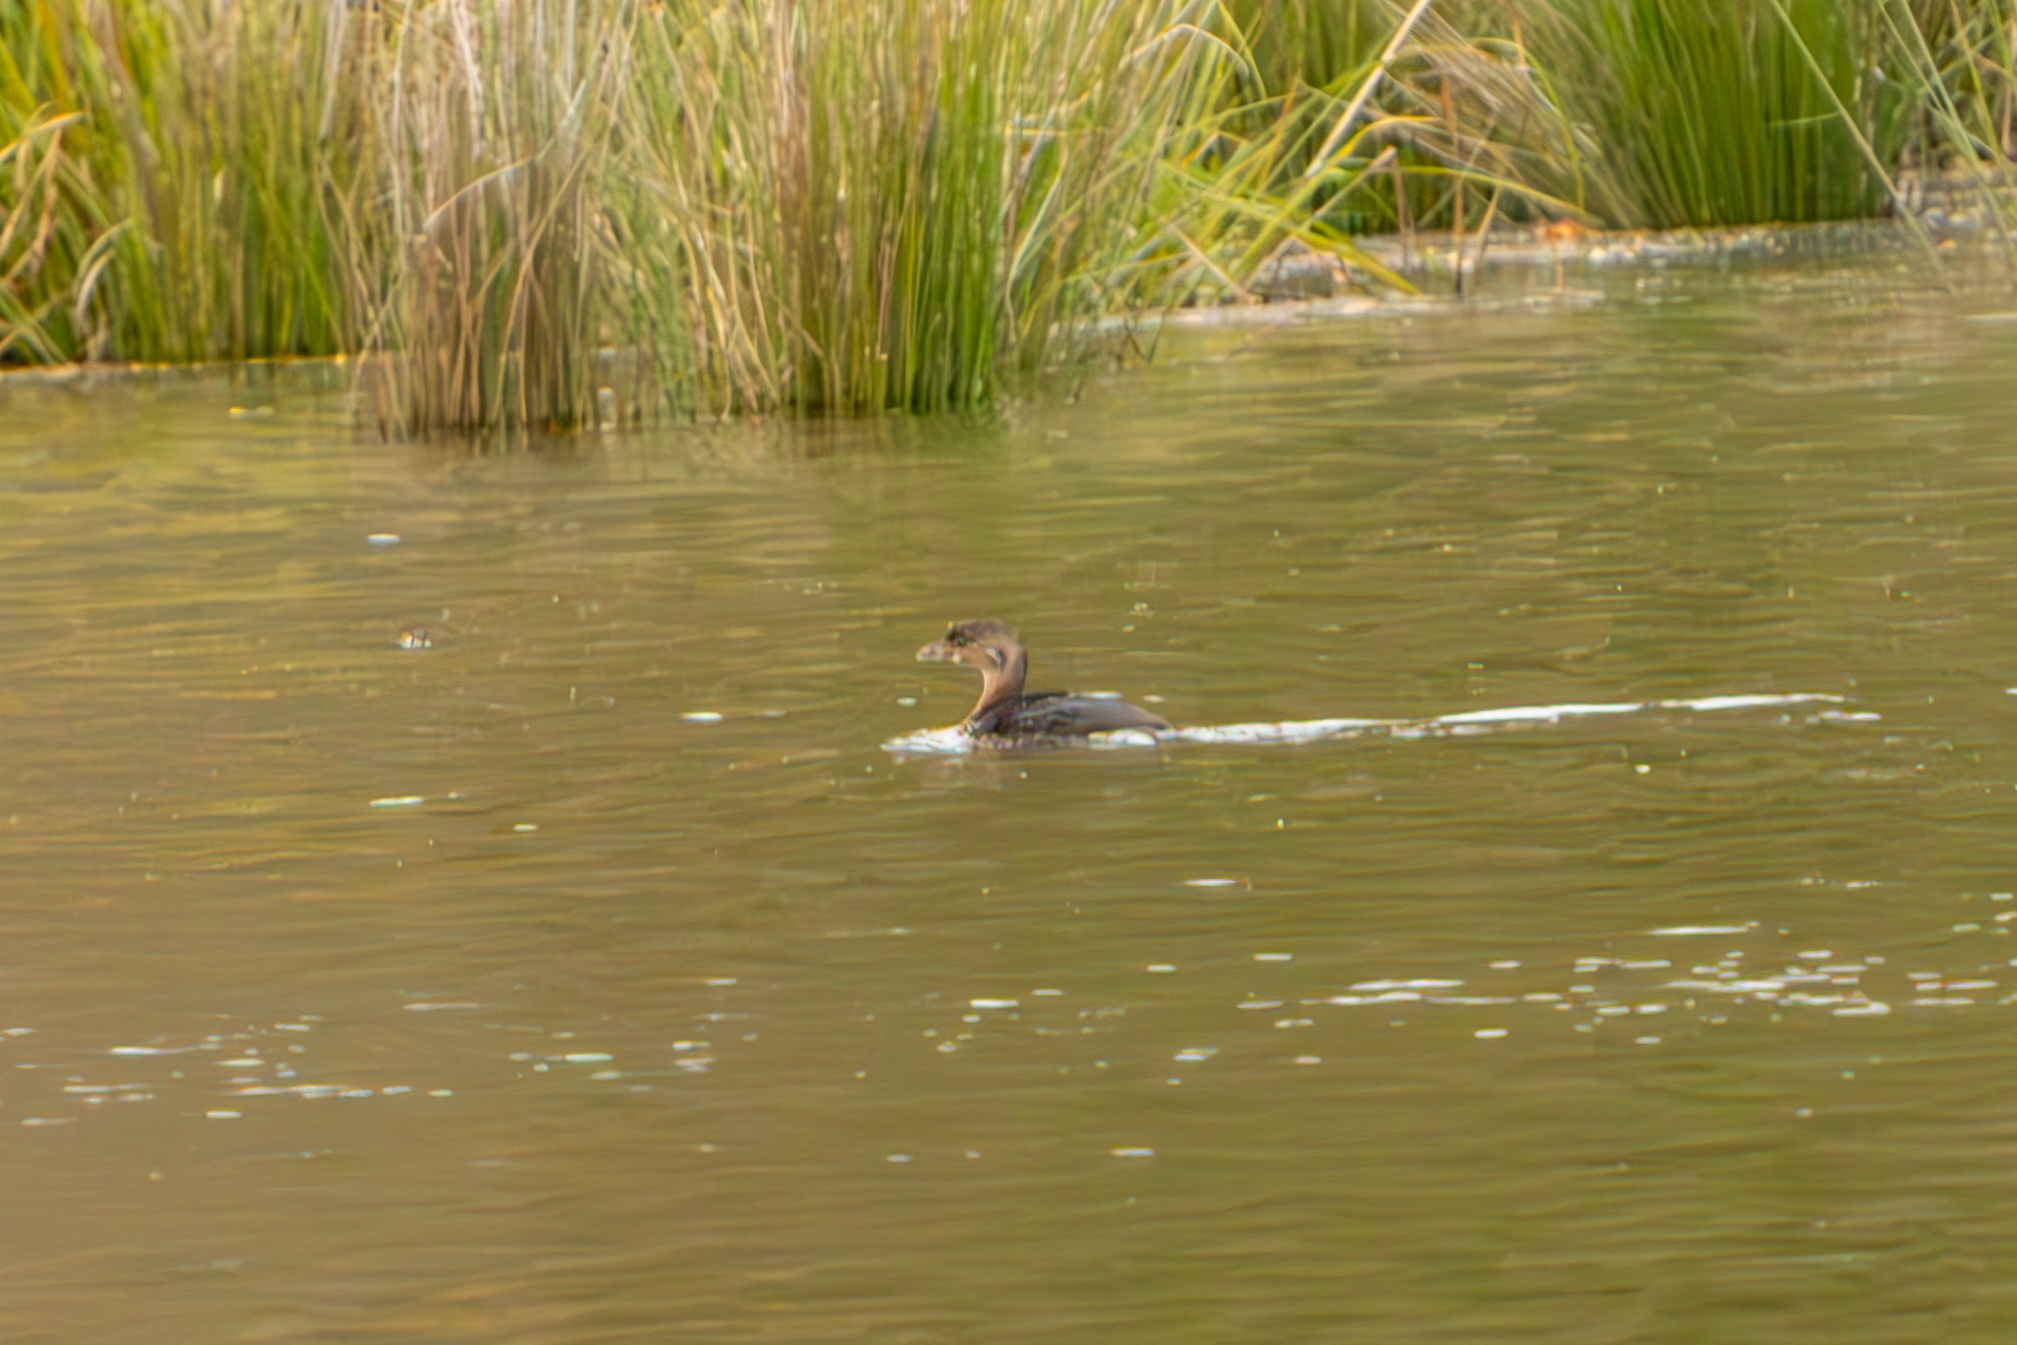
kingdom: Animalia
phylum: Chordata
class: Aves
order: Podicipediformes
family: Podicipedidae
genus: Podilymbus
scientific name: Podilymbus podiceps
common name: Pied-billed grebe
